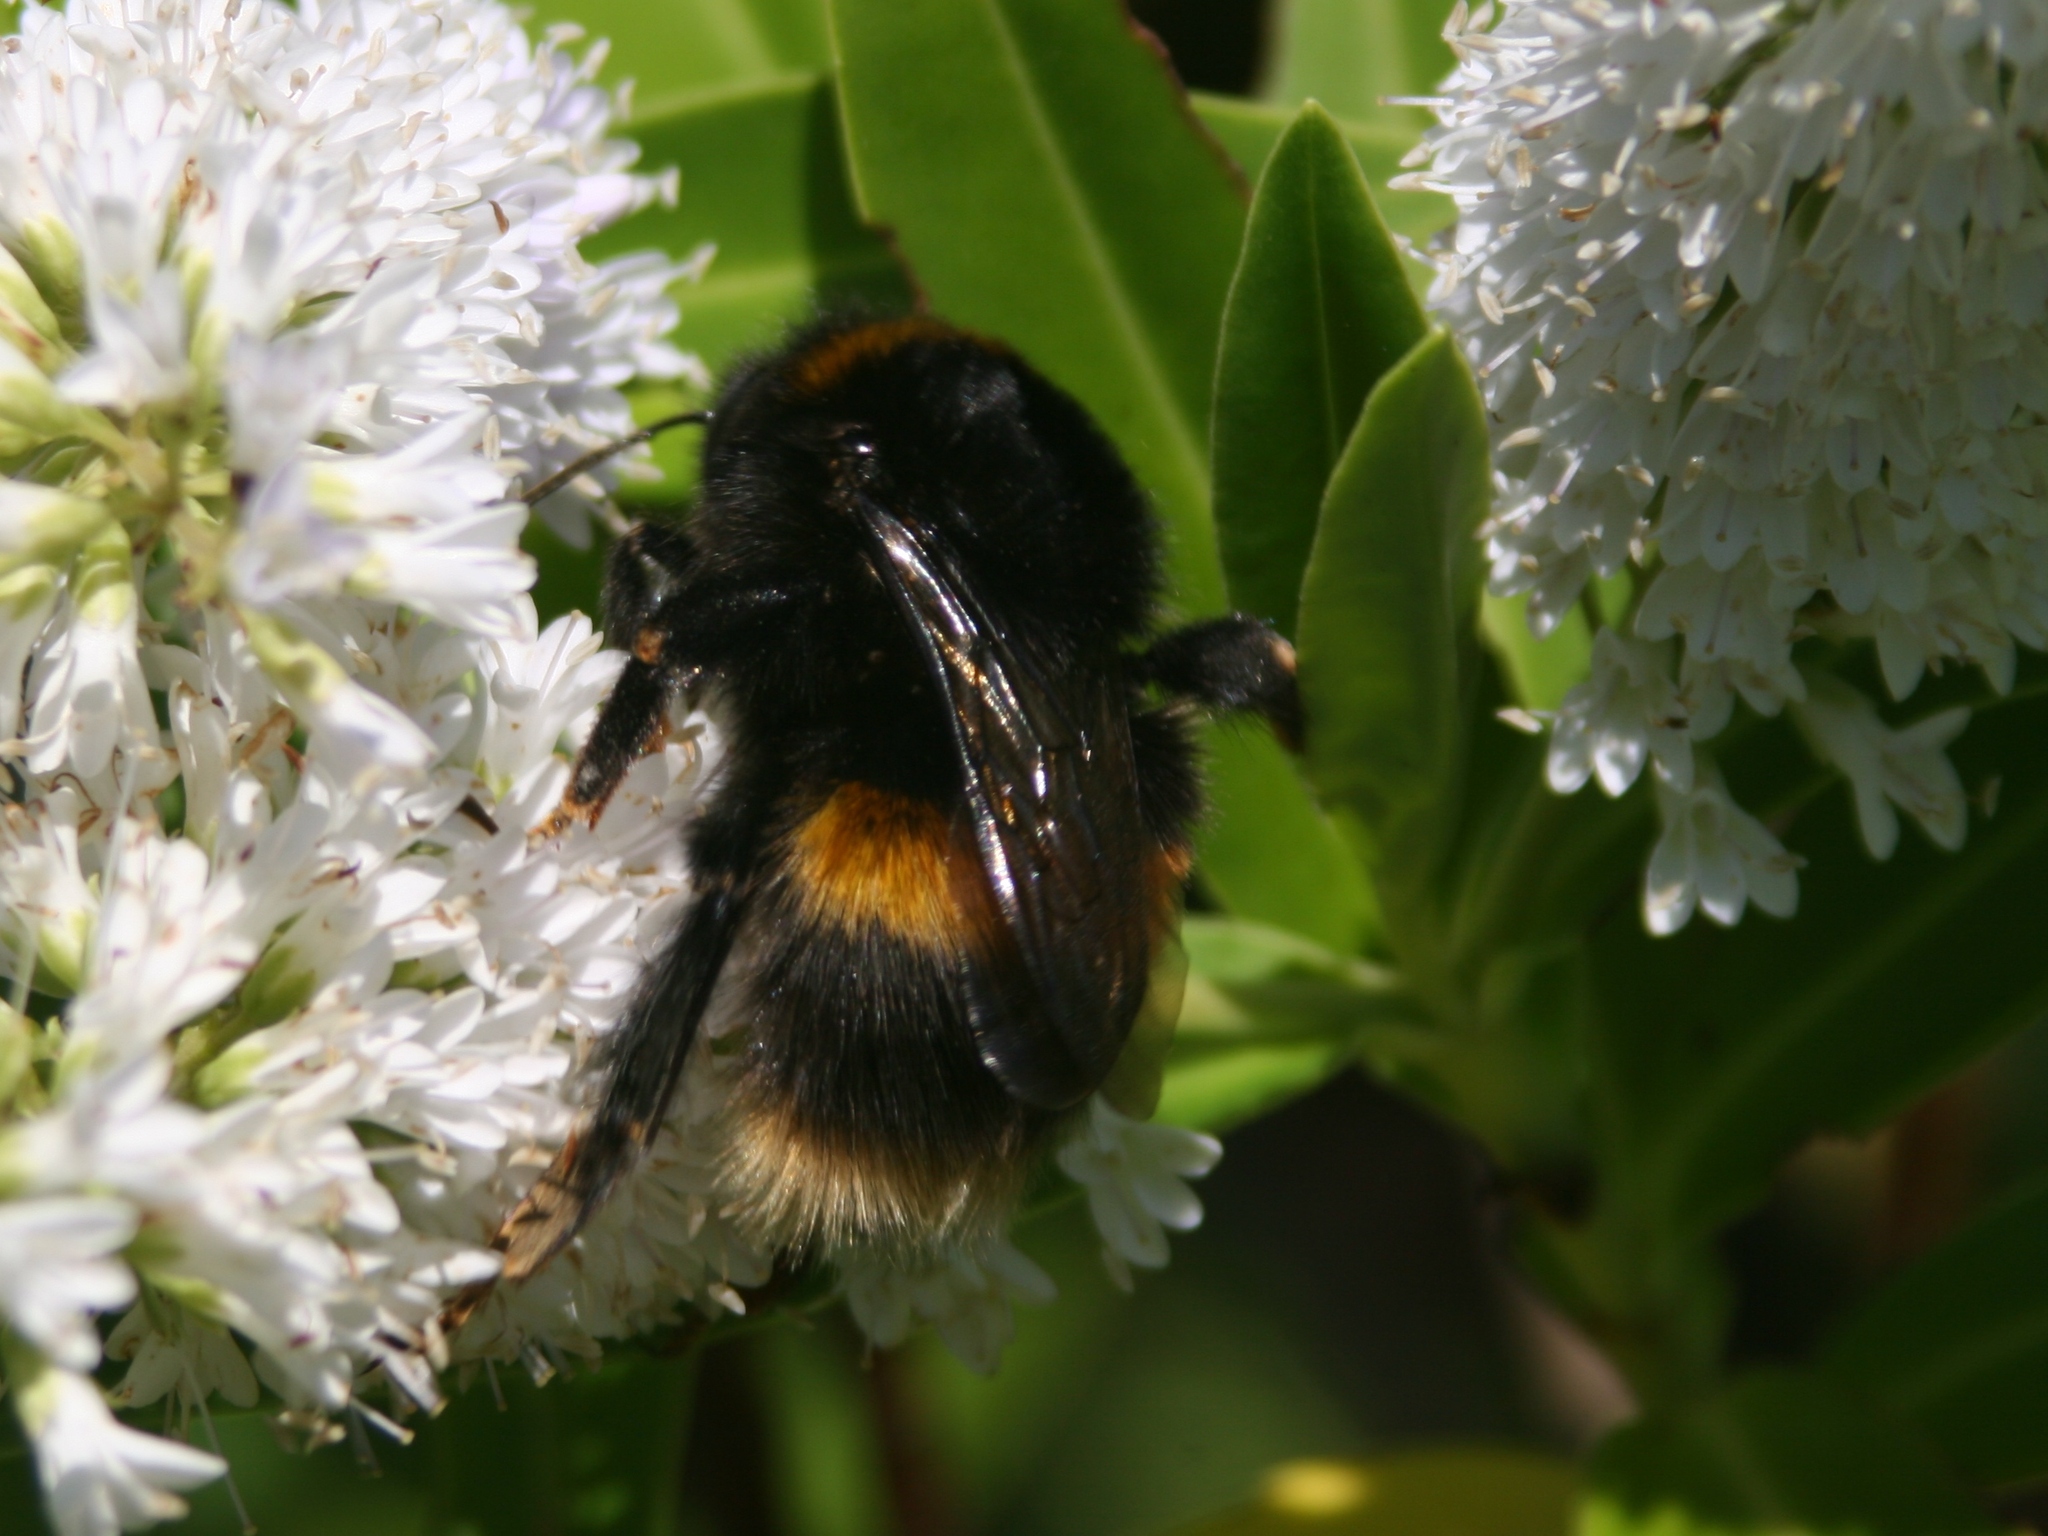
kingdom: Animalia
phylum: Arthropoda
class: Insecta
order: Hymenoptera
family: Apidae
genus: Bombus
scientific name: Bombus terrestris
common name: Buff-tailed bumblebee
